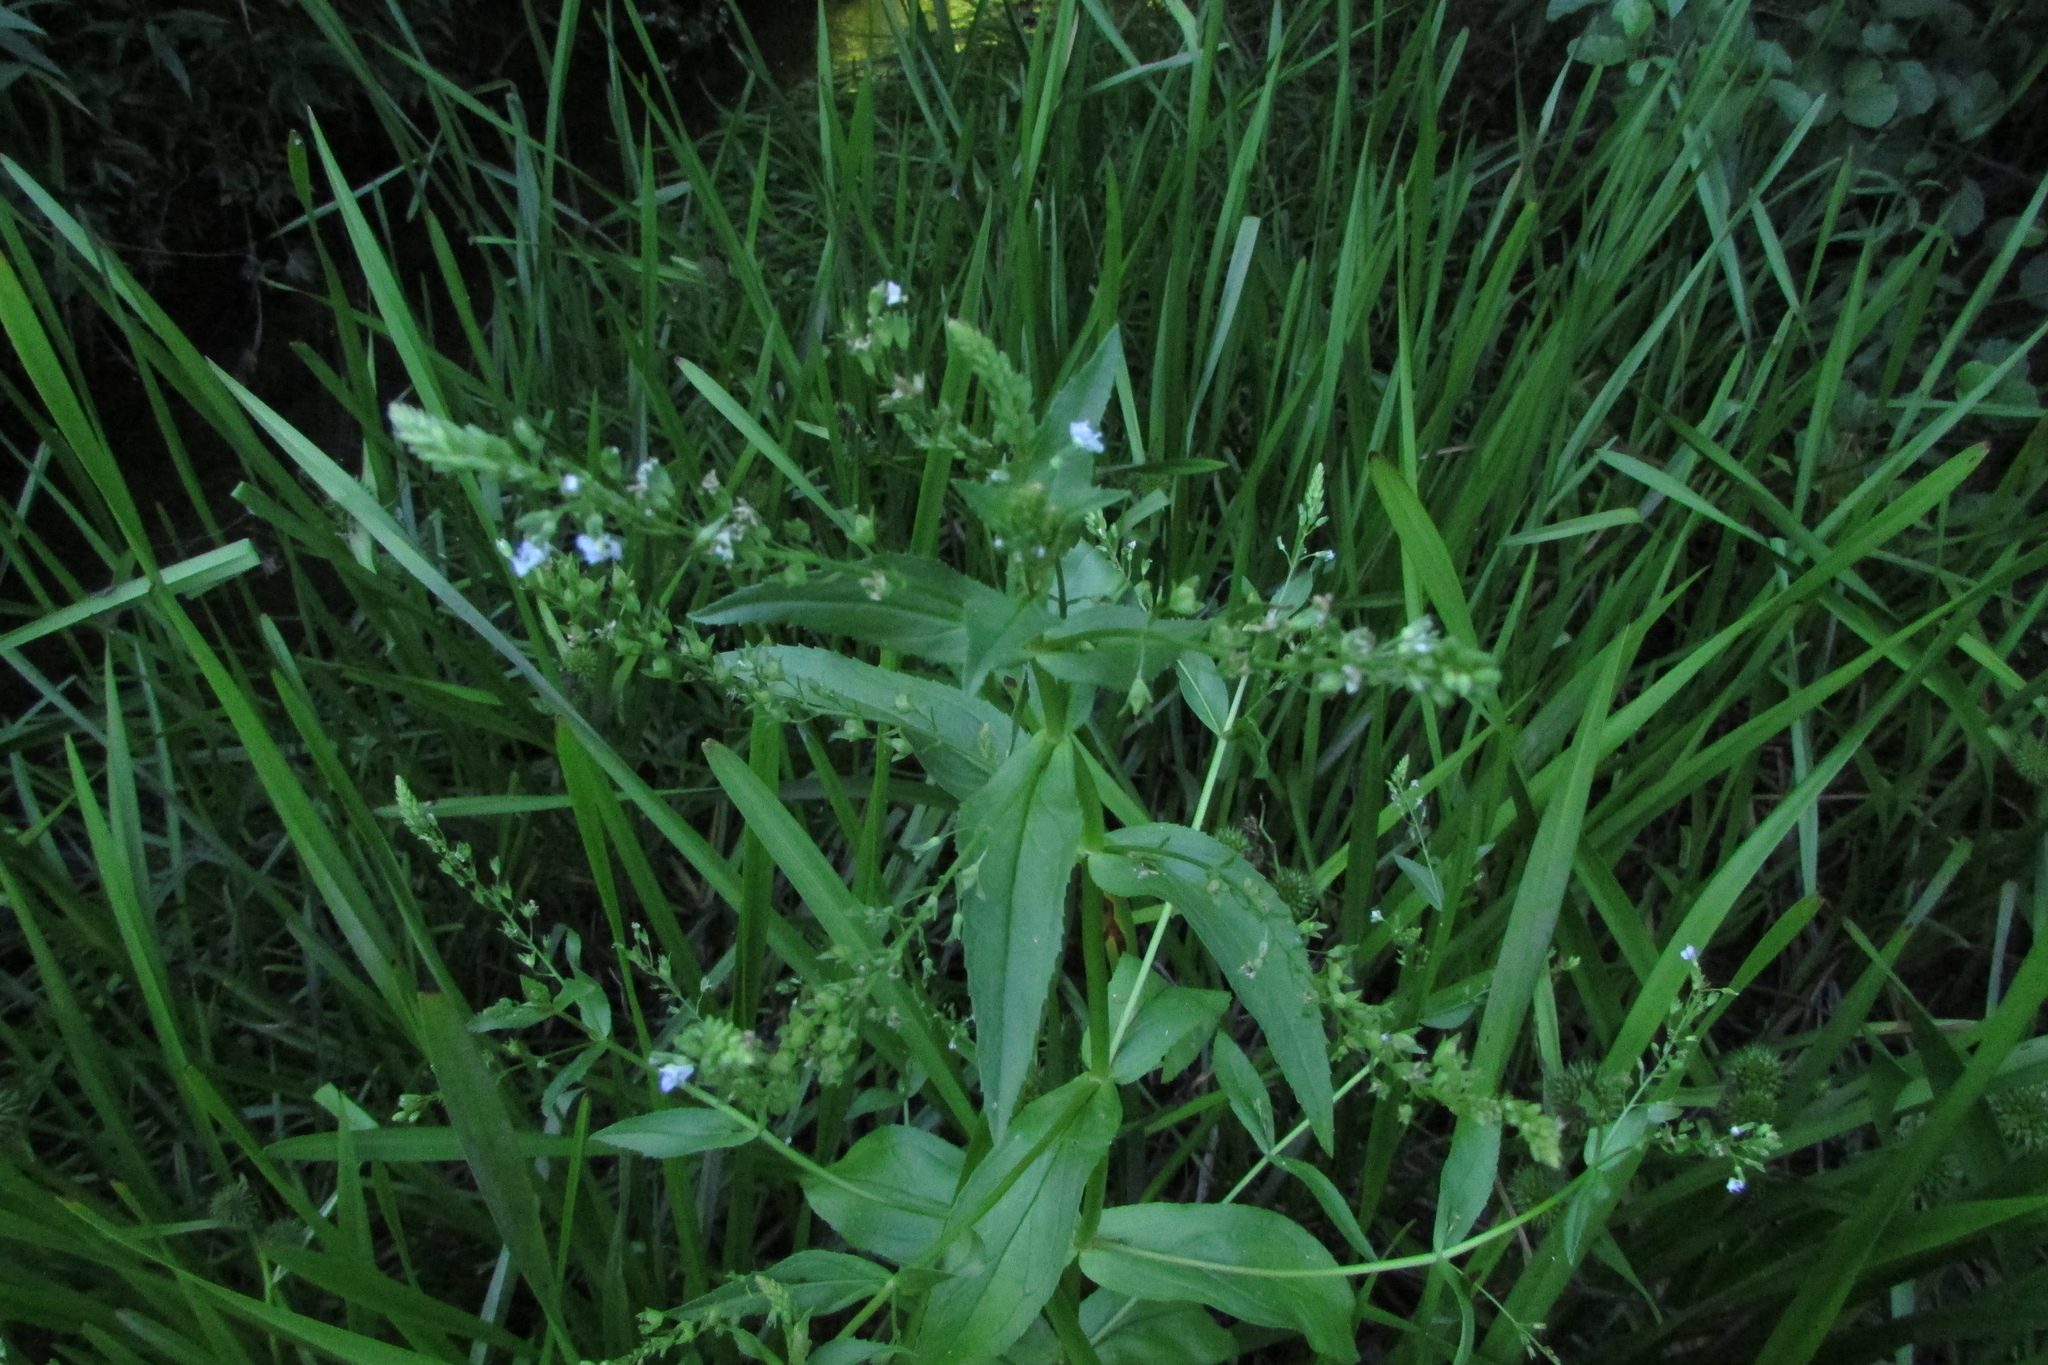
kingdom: Plantae
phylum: Tracheophyta
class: Magnoliopsida
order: Lamiales
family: Plantaginaceae
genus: Veronica
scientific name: Veronica anagallis-aquatica
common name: Water speedwell
